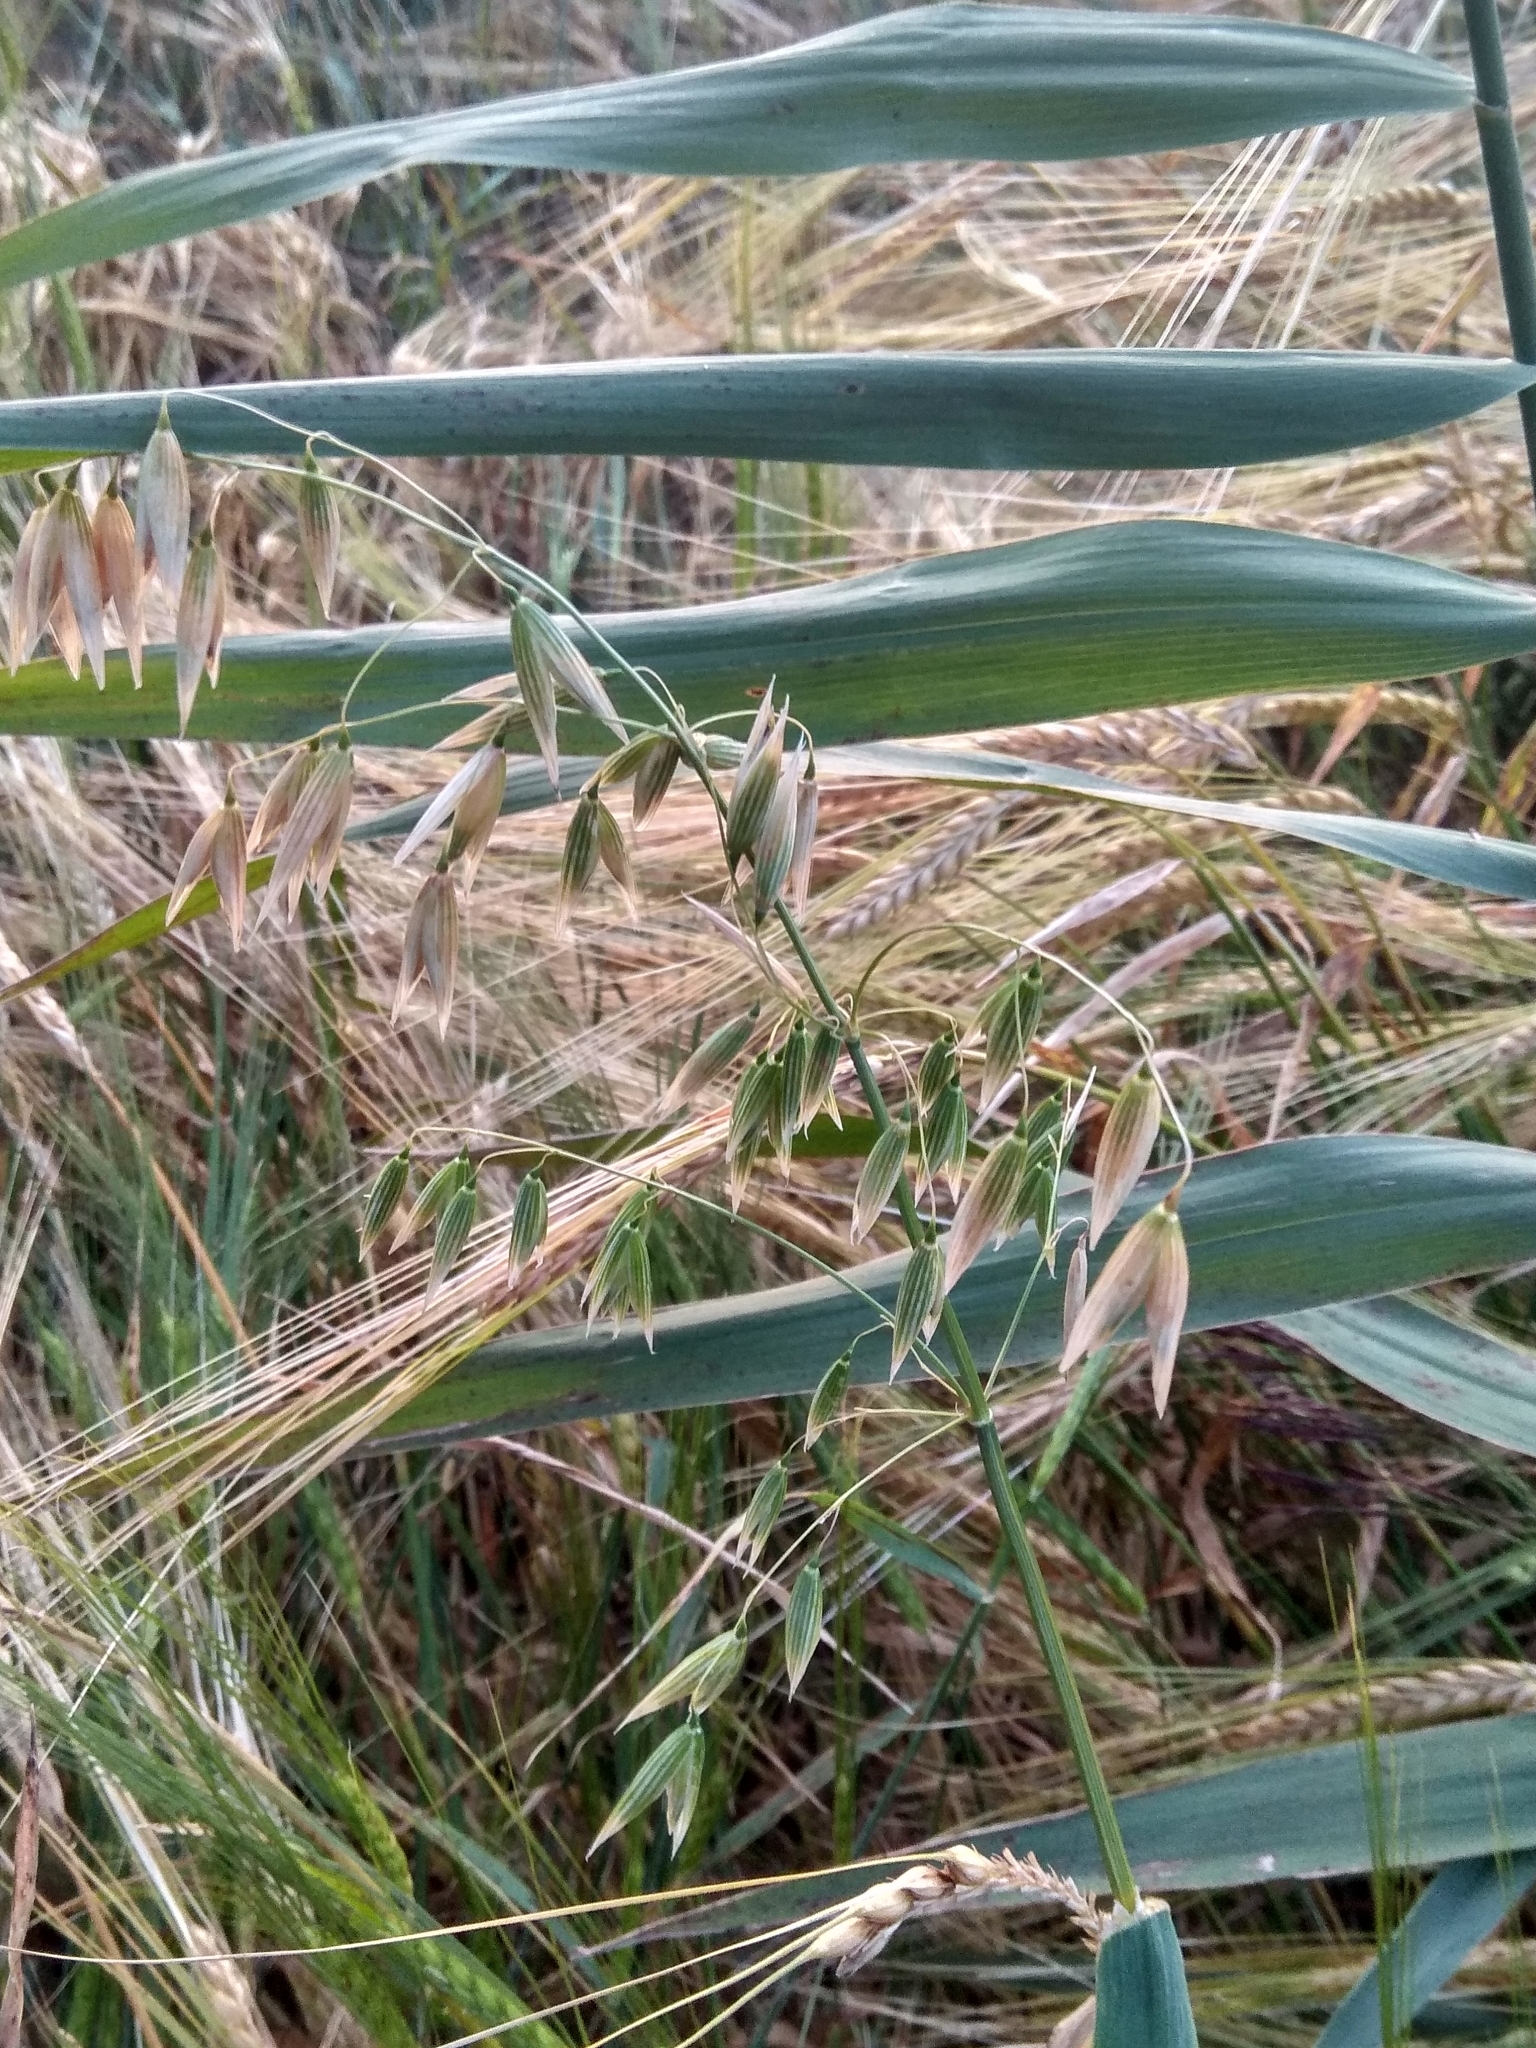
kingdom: Plantae
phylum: Tracheophyta
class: Liliopsida
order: Poales
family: Poaceae
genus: Avena
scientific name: Avena sativa
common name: Oat
